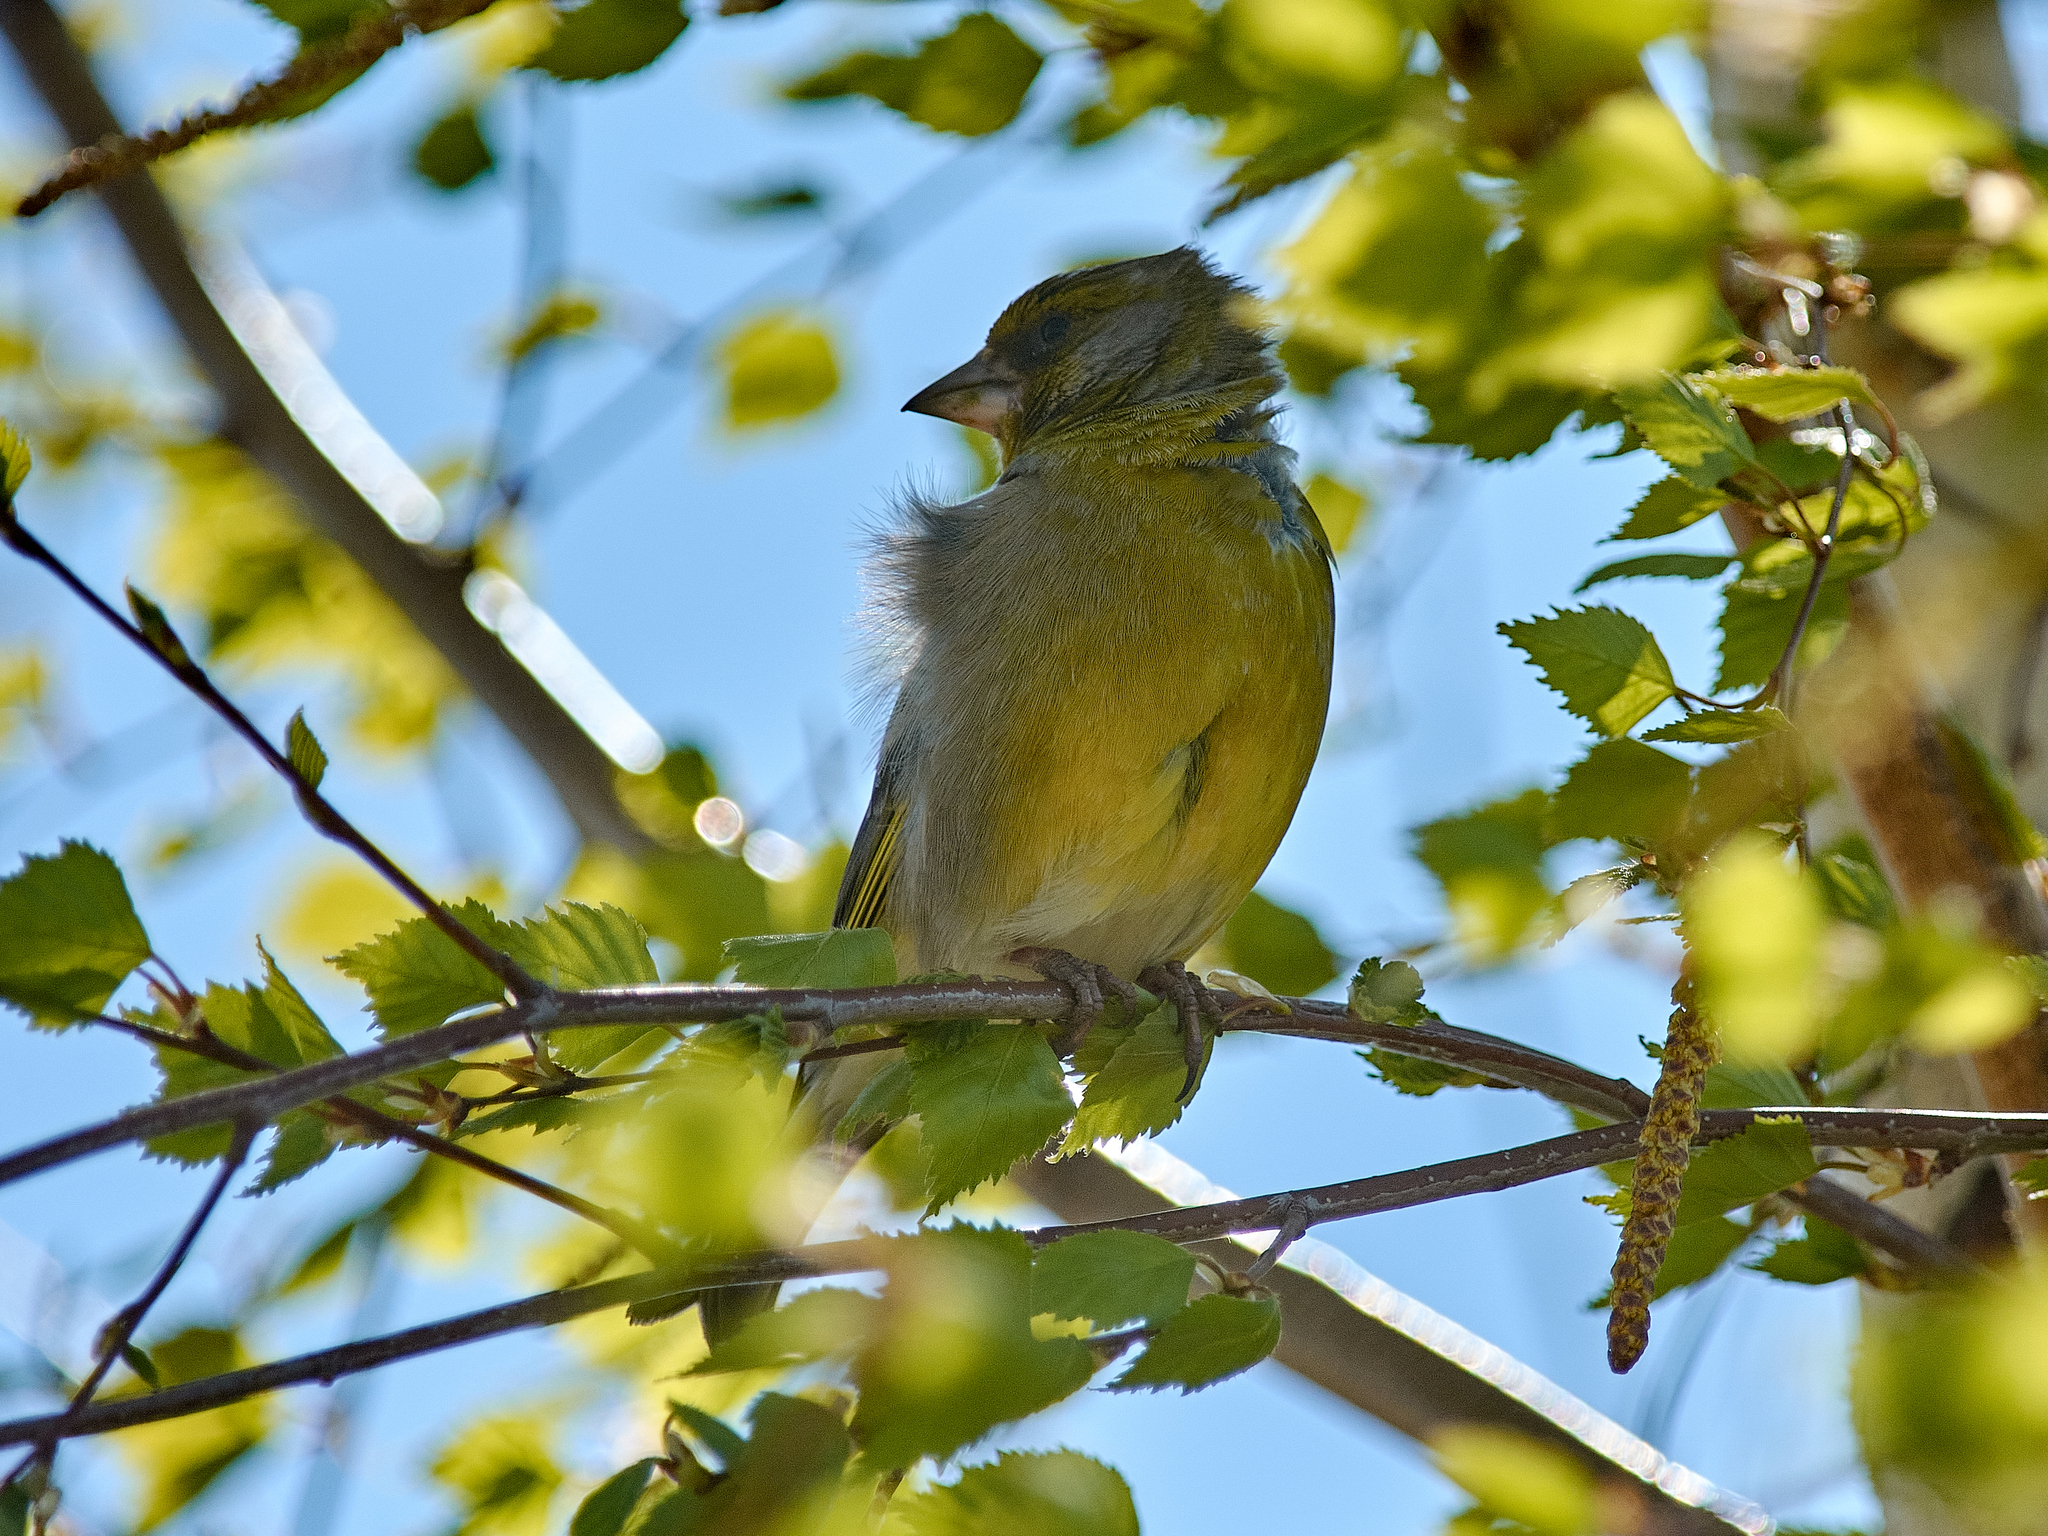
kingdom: Plantae
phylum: Tracheophyta
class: Liliopsida
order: Poales
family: Poaceae
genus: Chloris
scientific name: Chloris chloris
